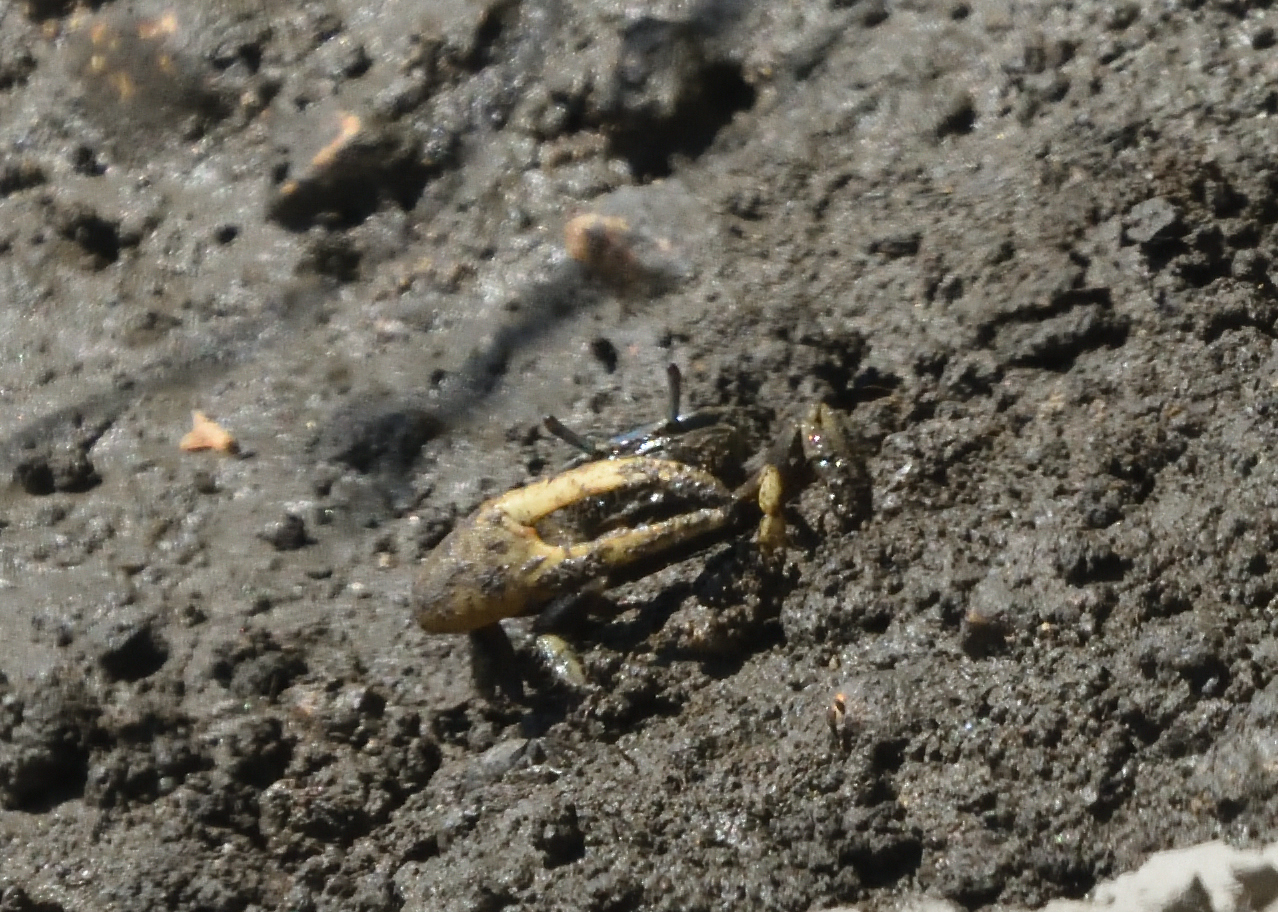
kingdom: Animalia
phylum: Arthropoda
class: Malacostraca
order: Decapoda
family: Ocypodidae
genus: Minuca
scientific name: Minuca pugnax
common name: Mud fiddler crab
